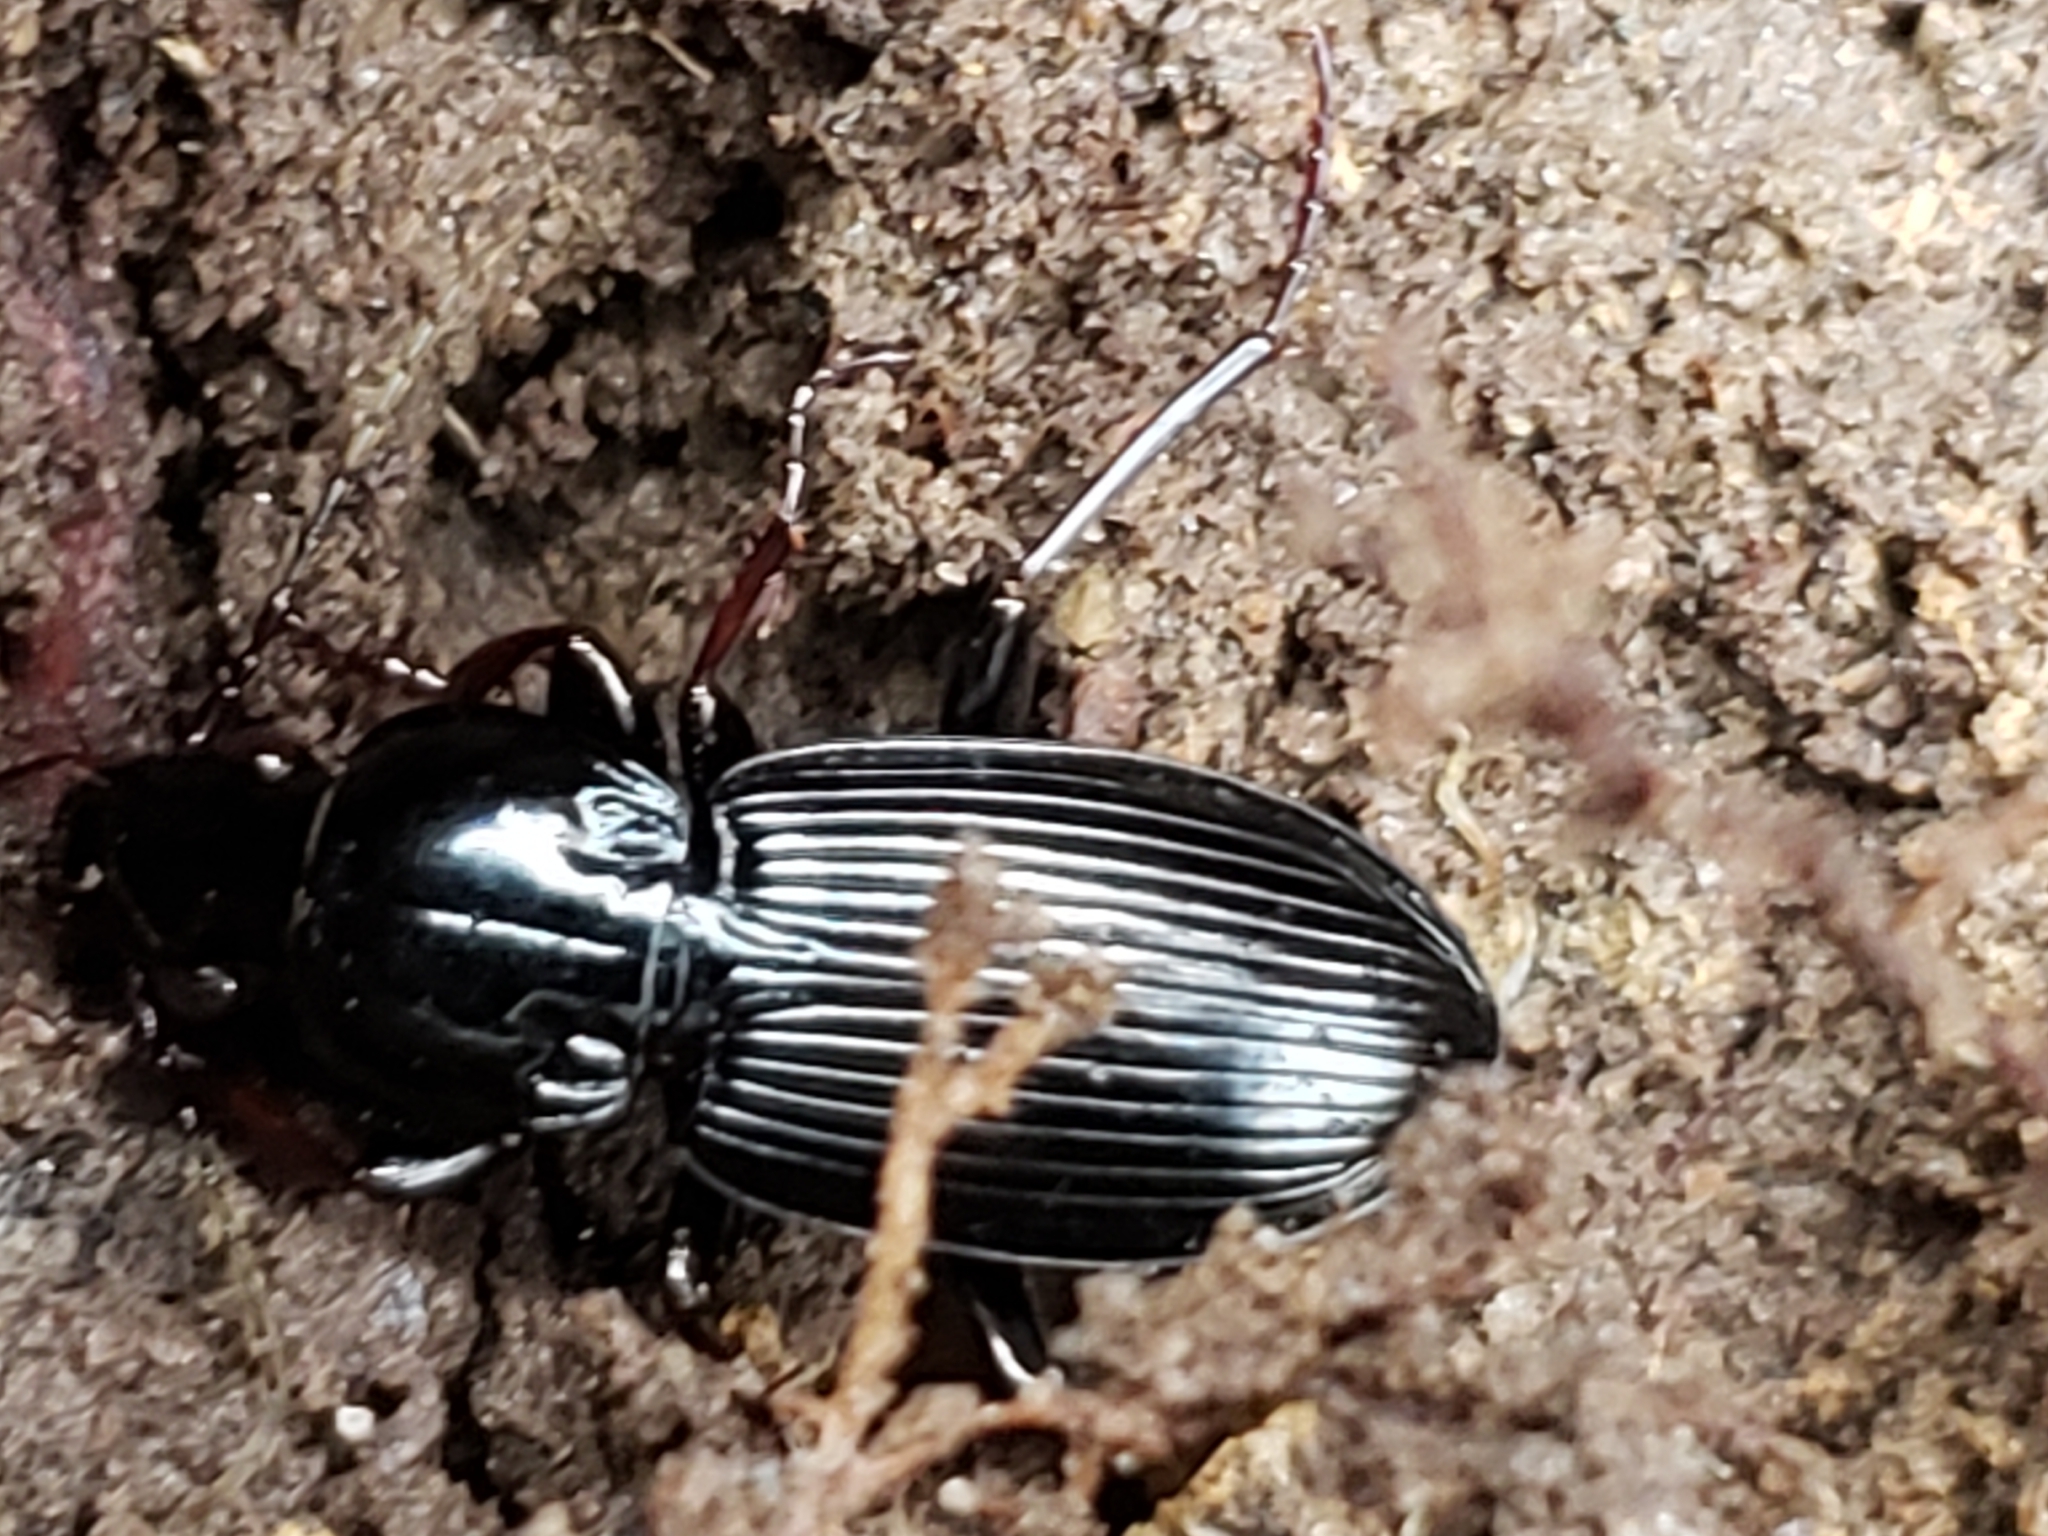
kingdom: Animalia
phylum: Arthropoda
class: Insecta
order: Coleoptera
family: Carabidae
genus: Pterostichus
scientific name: Pterostichus stygicus
